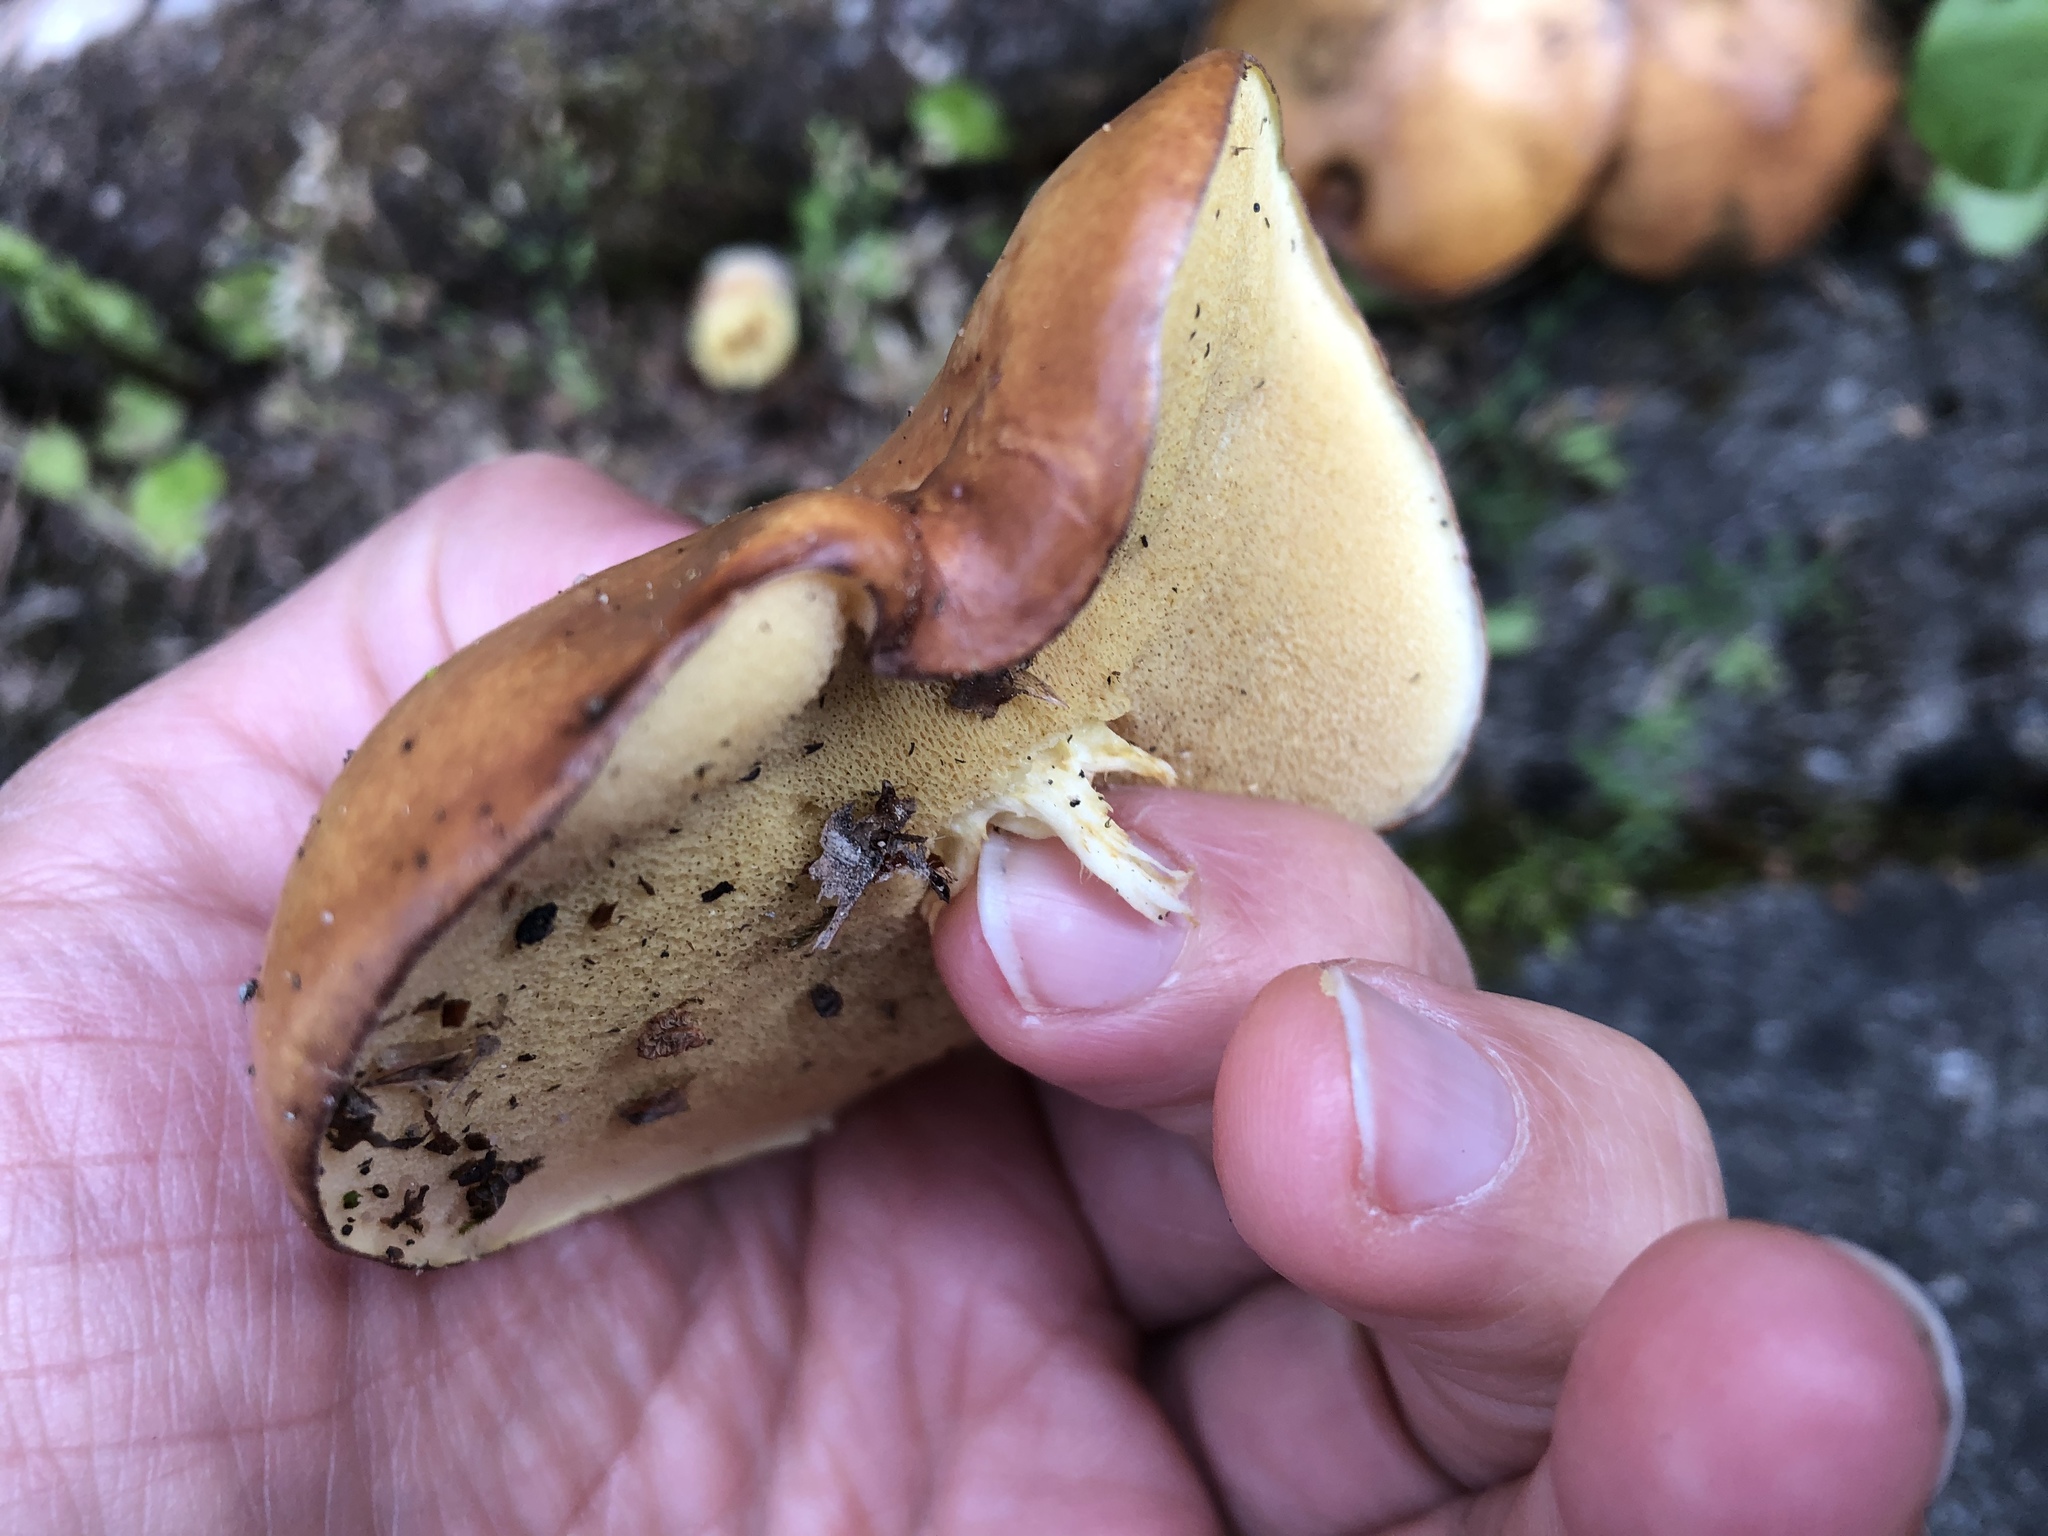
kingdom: Fungi
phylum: Basidiomycota
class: Agaricomycetes
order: Boletales
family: Suillaceae
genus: Suillus
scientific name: Suillus granulatus
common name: Weeping bolete
